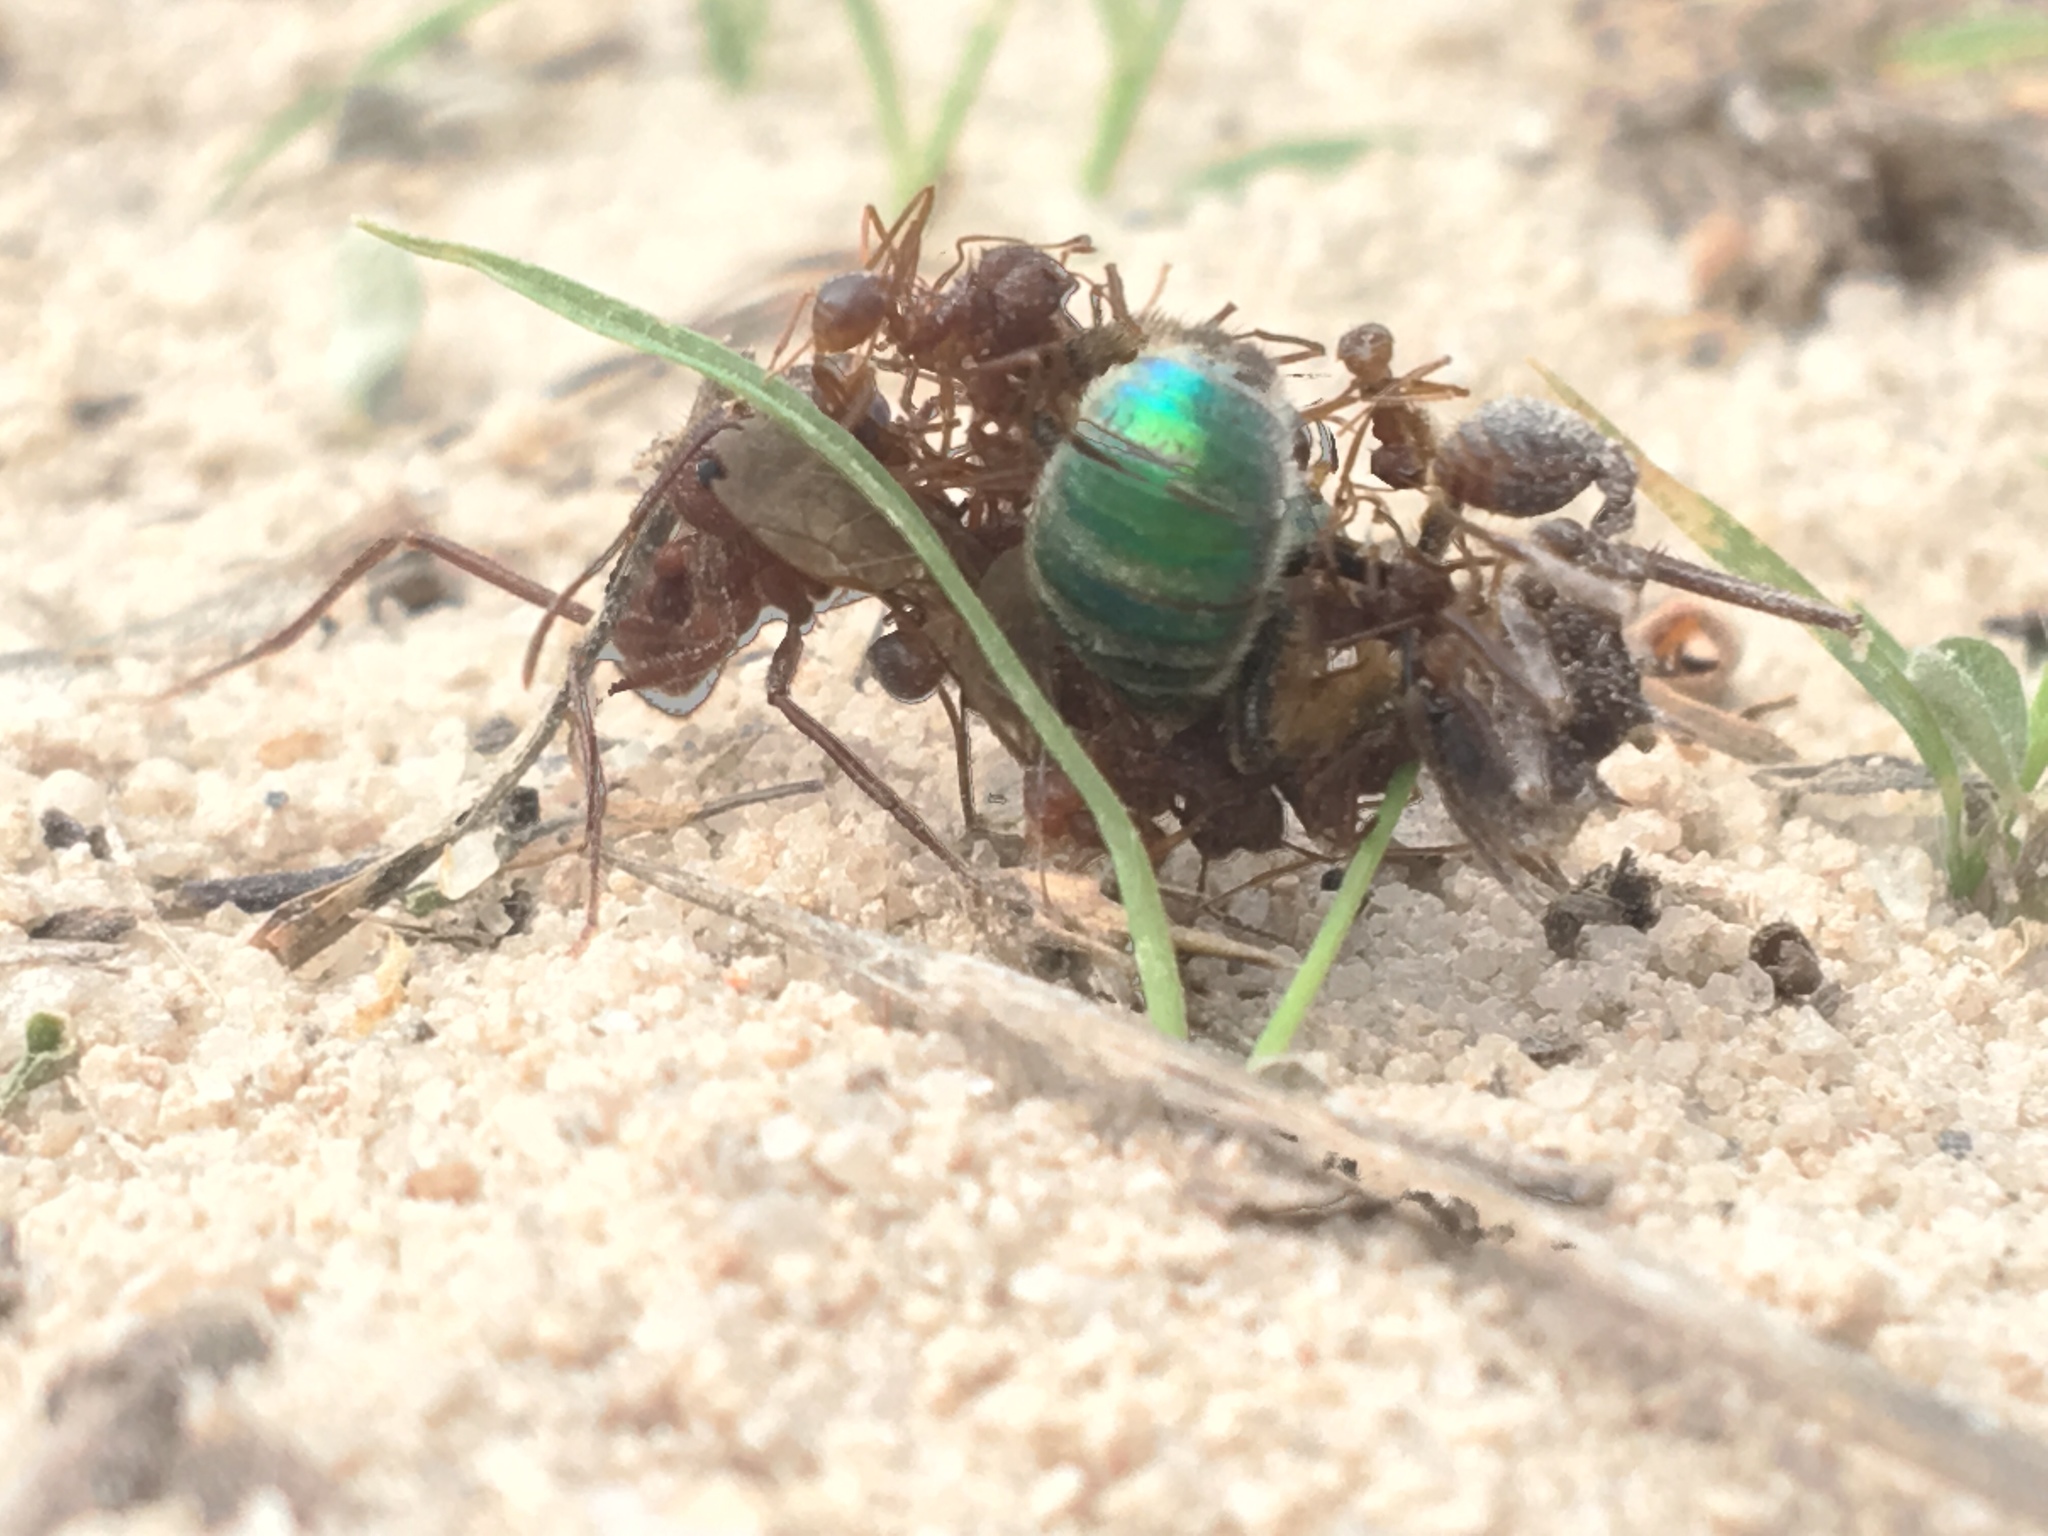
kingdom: Animalia
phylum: Arthropoda
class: Insecta
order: Hymenoptera
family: Formicidae
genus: Atta
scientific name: Atta texana
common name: Texas leafcutting ant
